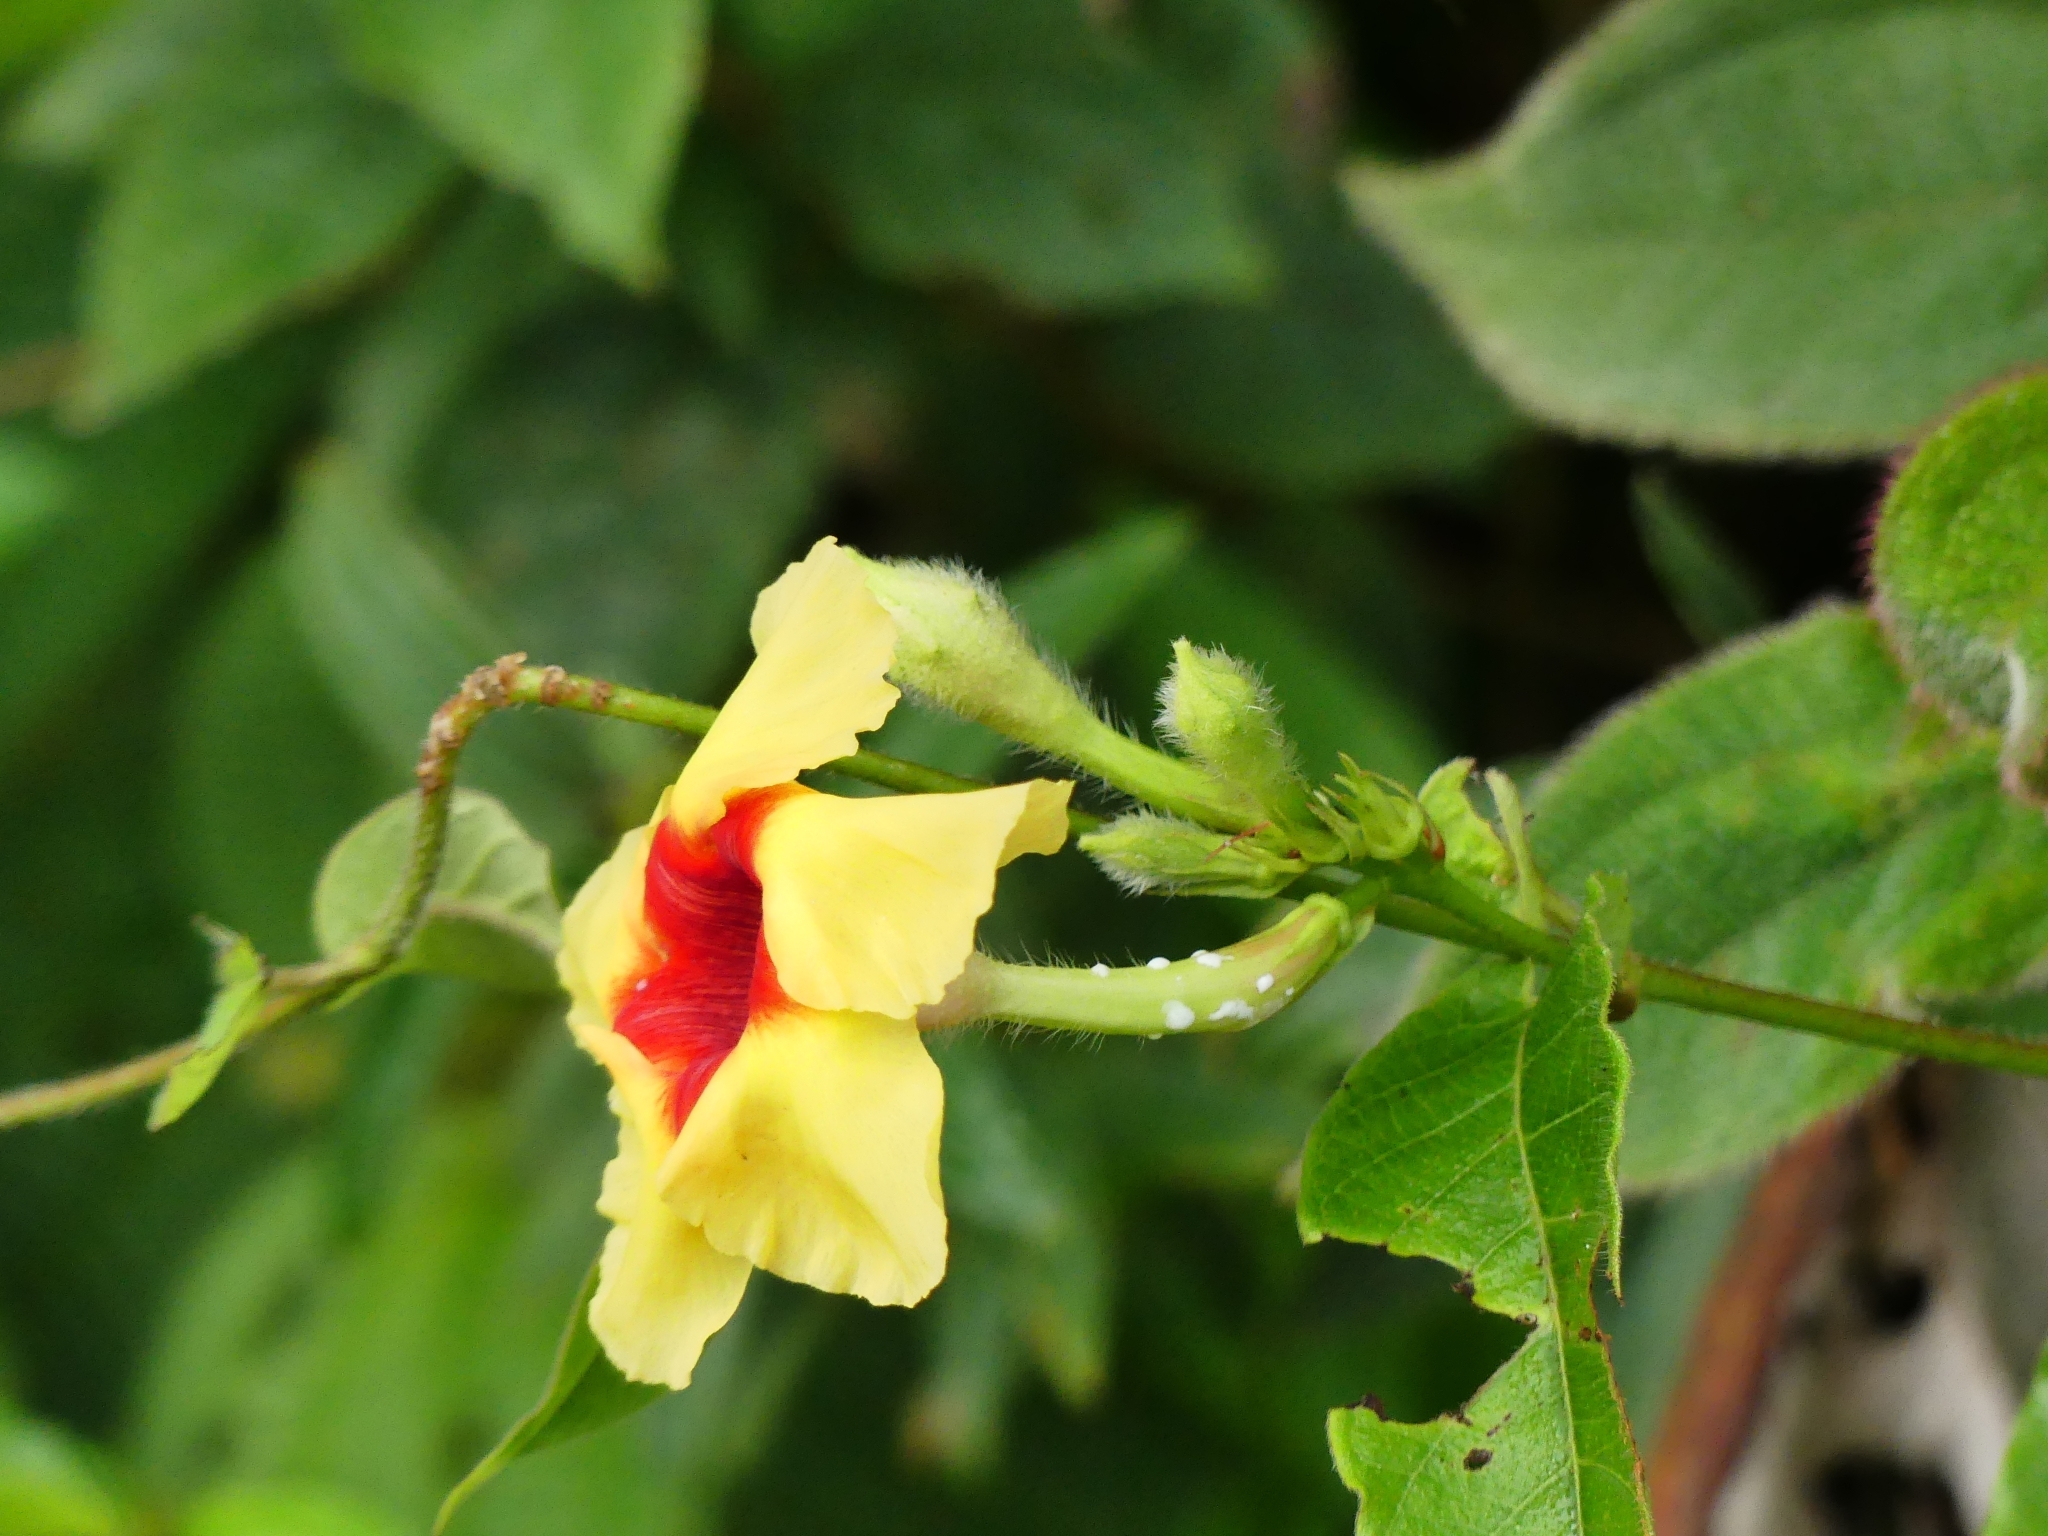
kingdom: Plantae
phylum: Tracheophyta
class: Magnoliopsida
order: Gentianales
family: Apocynaceae
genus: Mandevilla
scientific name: Mandevilla hirsuta
